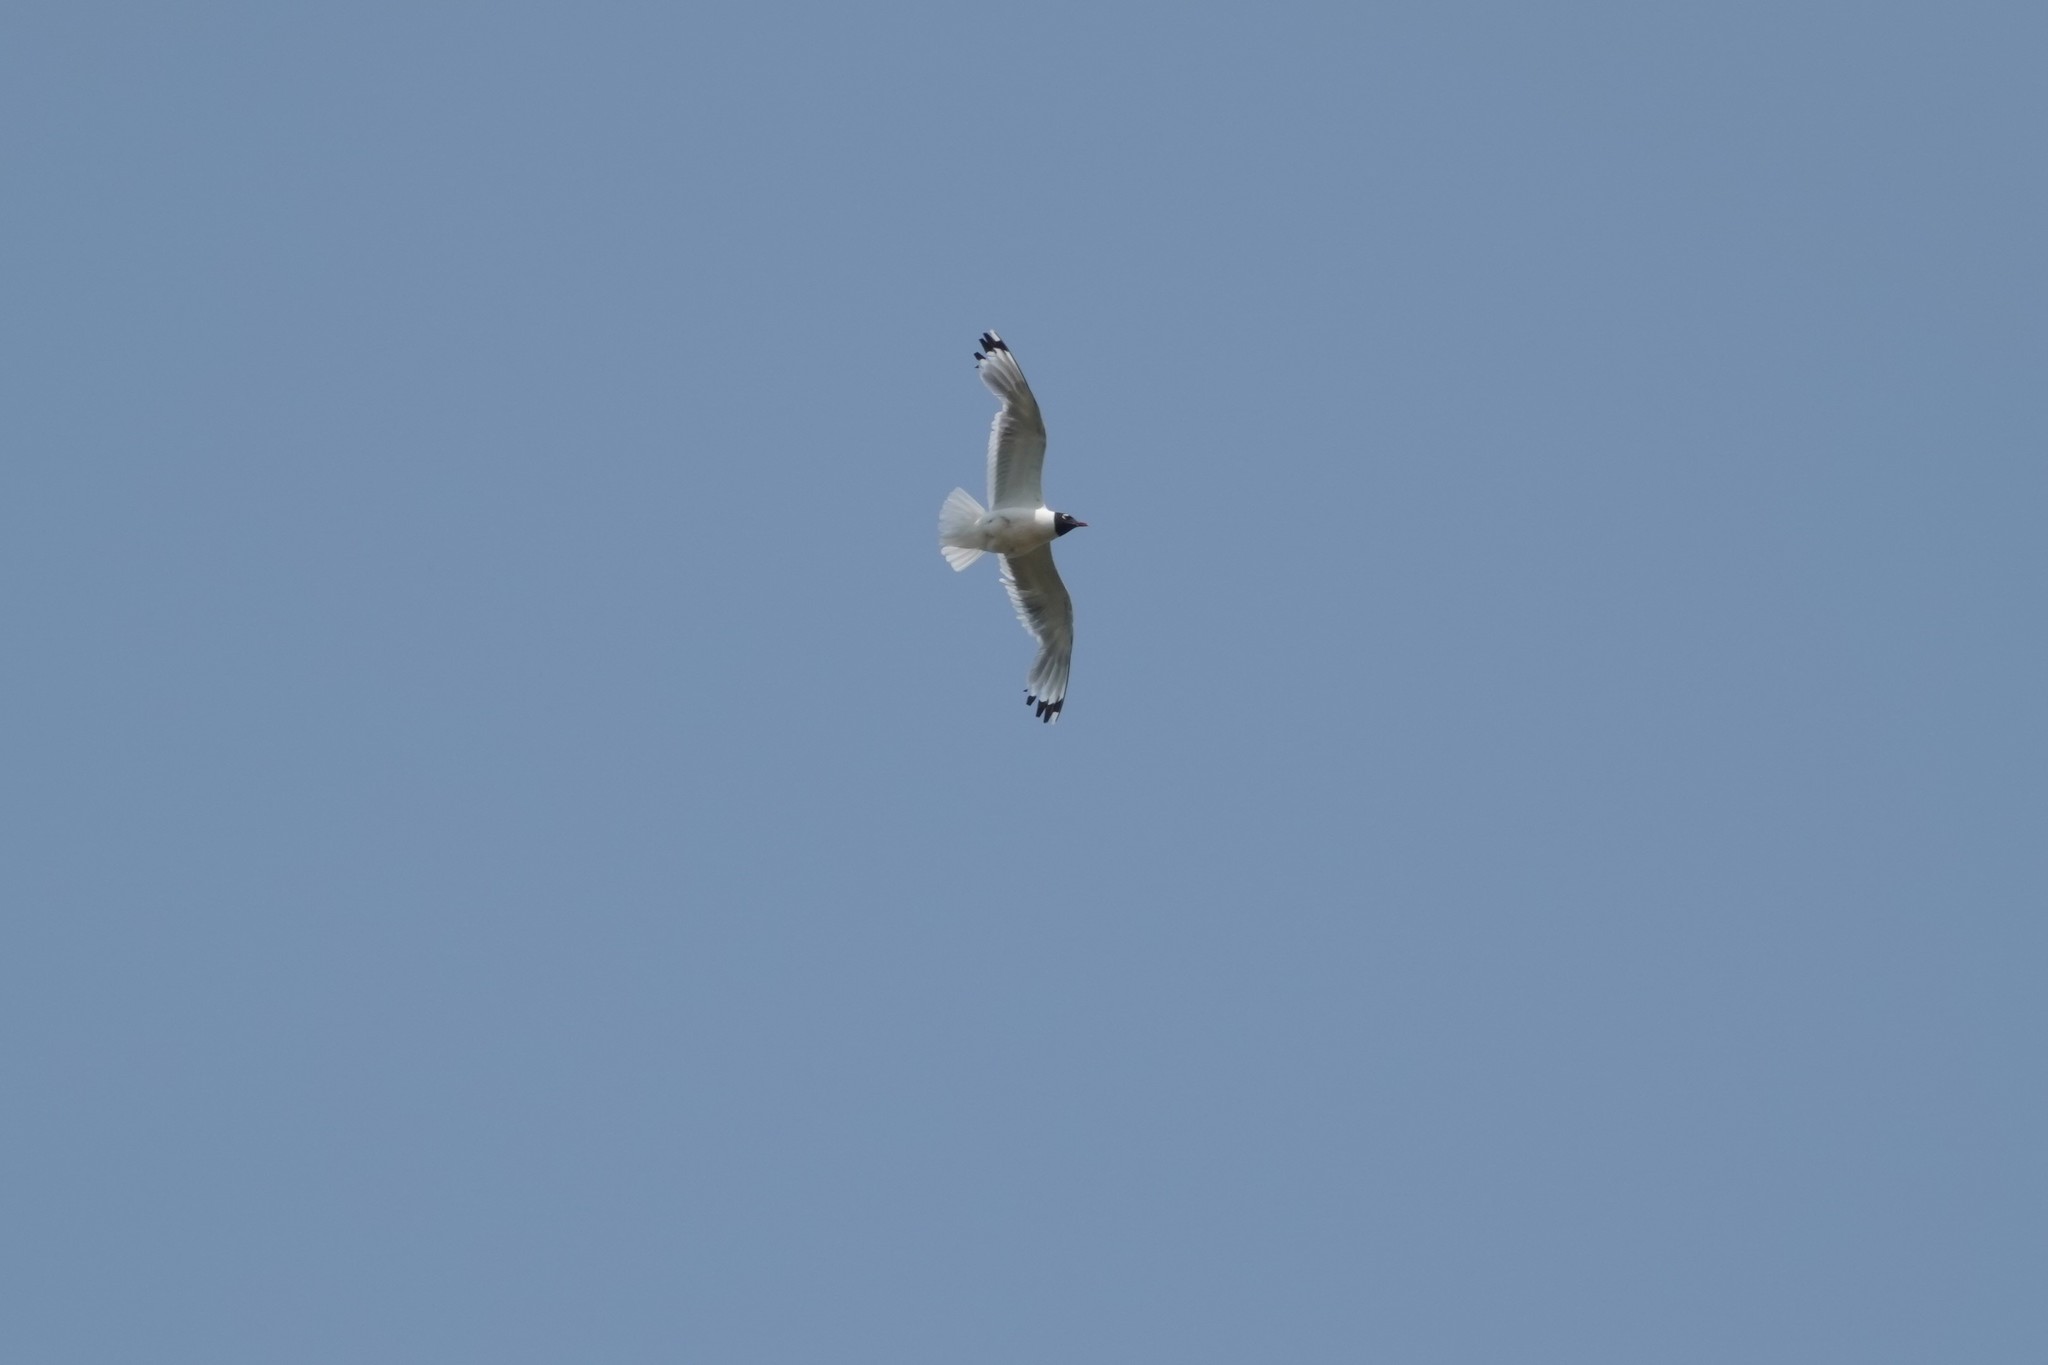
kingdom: Animalia
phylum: Chordata
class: Aves
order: Charadriiformes
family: Laridae
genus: Leucophaeus
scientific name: Leucophaeus pipixcan
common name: Franklin's gull
